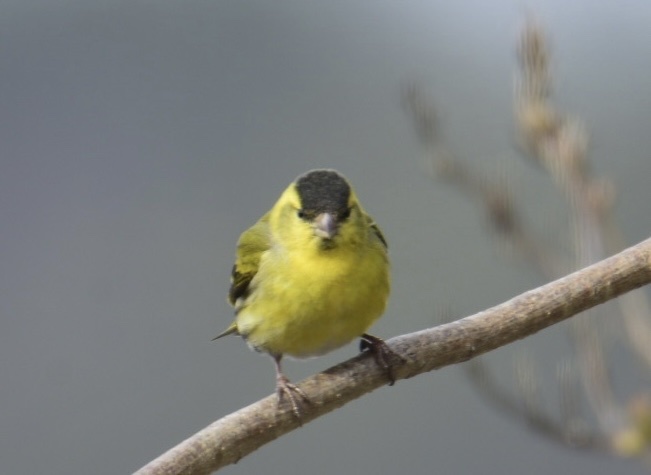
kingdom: Animalia
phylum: Chordata
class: Aves
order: Passeriformes
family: Fringillidae
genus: Spinus
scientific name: Spinus spinus
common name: Eurasian siskin
